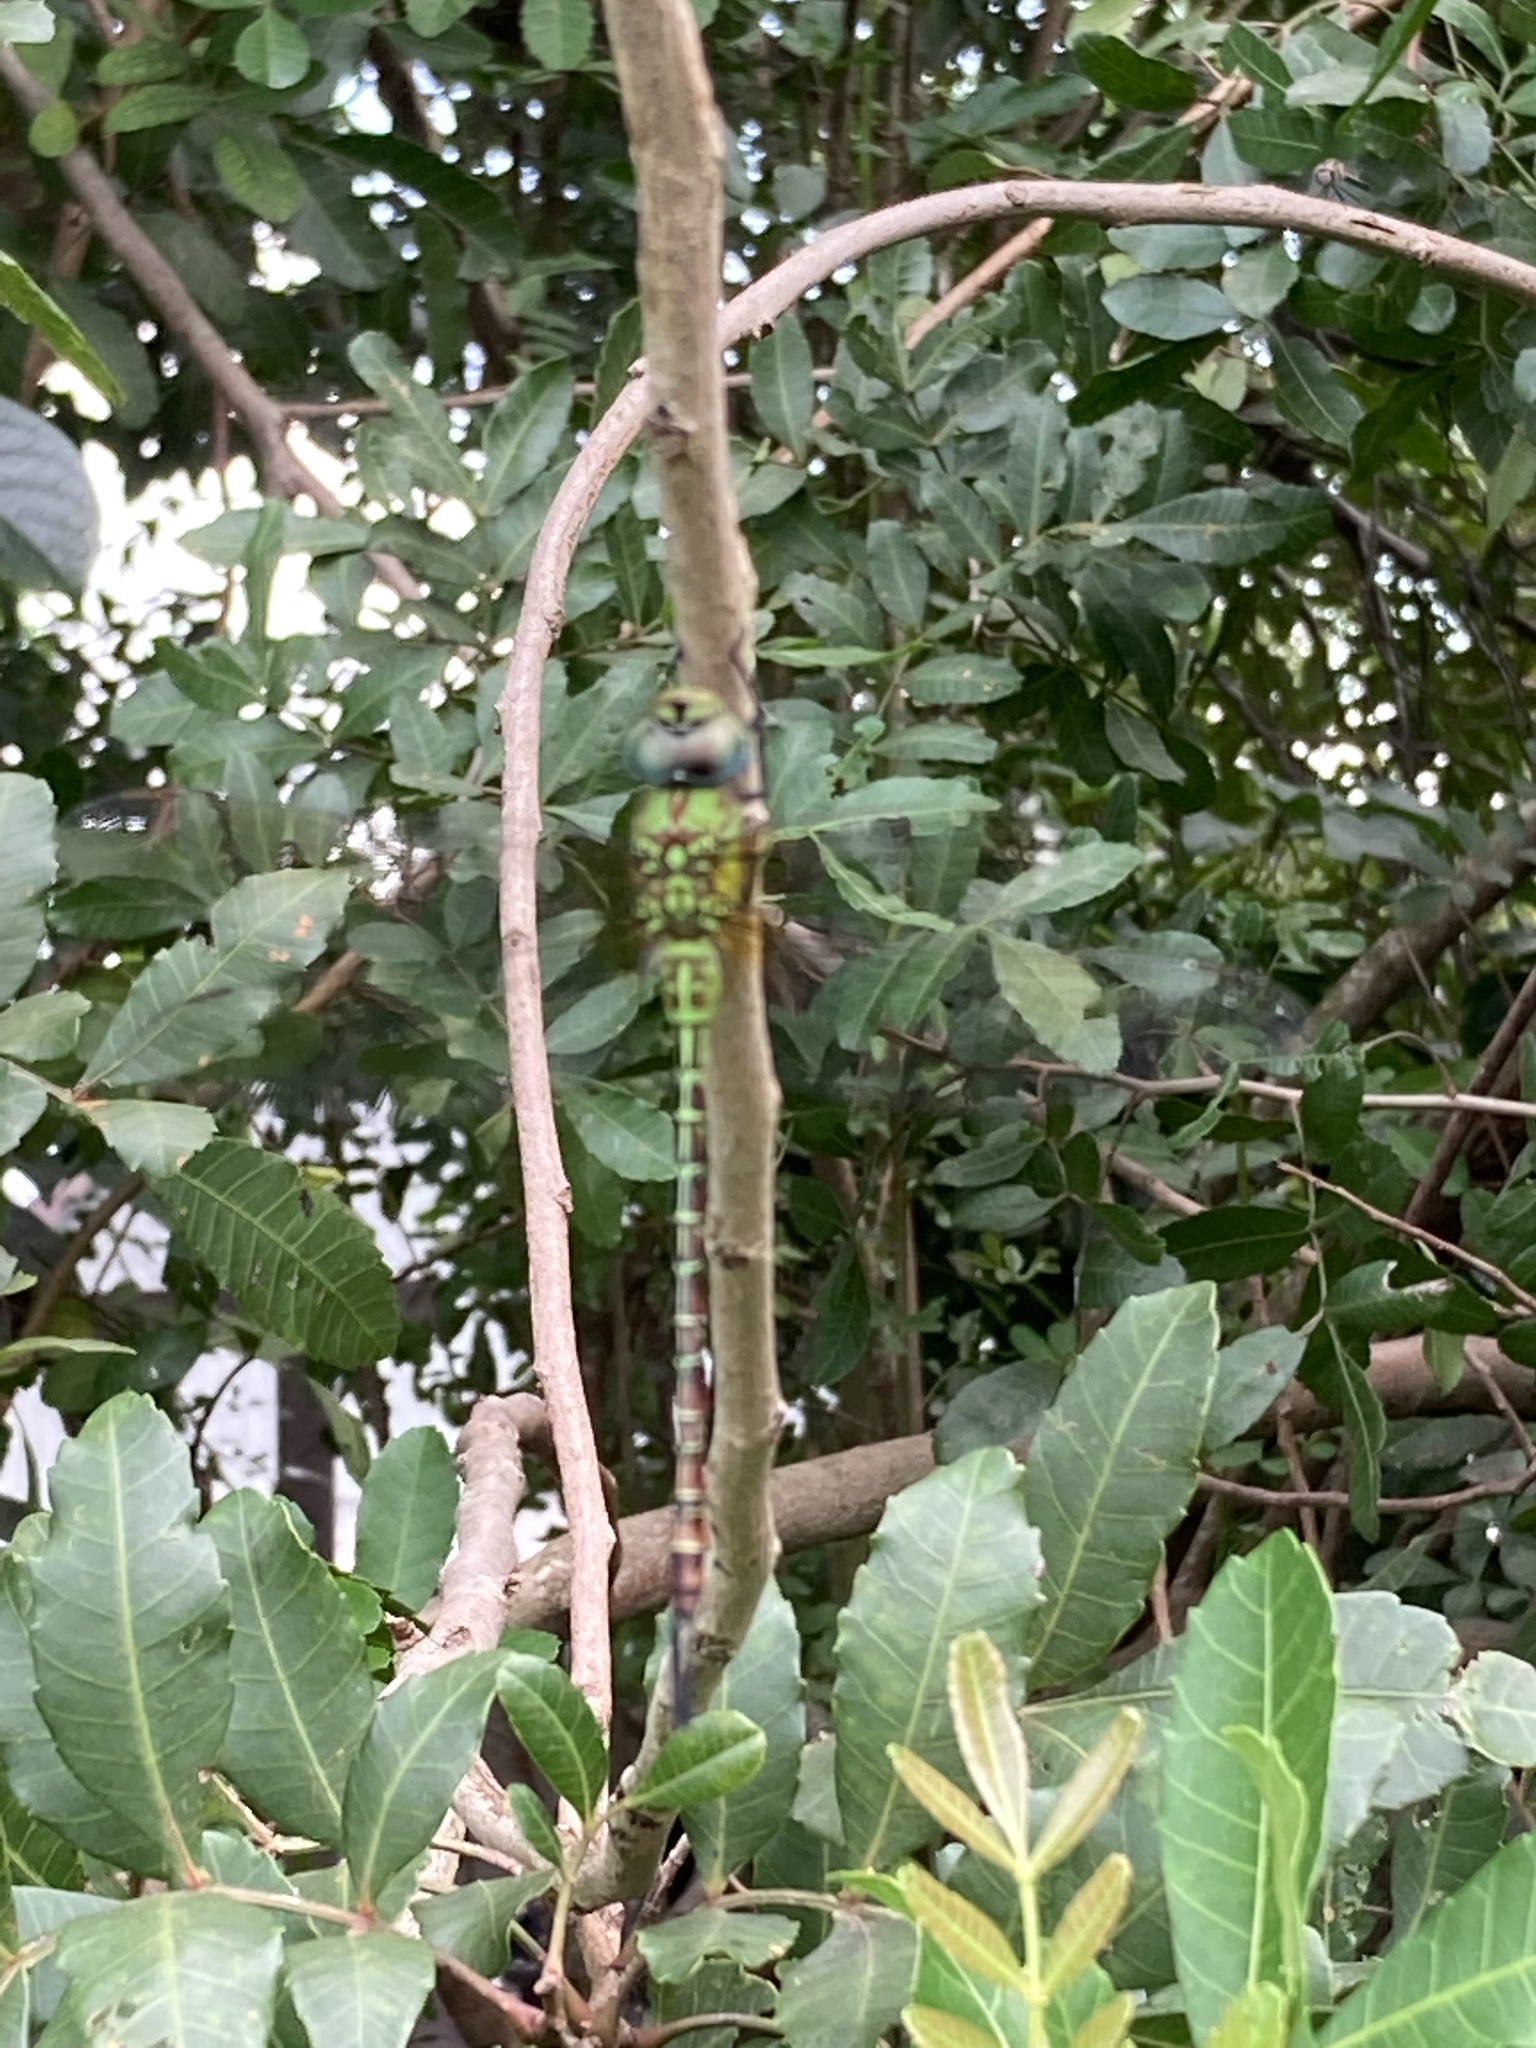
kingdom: Animalia
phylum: Arthropoda
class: Insecta
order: Odonata
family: Aeshnidae
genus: Coryphaeschna
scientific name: Coryphaeschna adnexa
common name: Blue-faced darner
